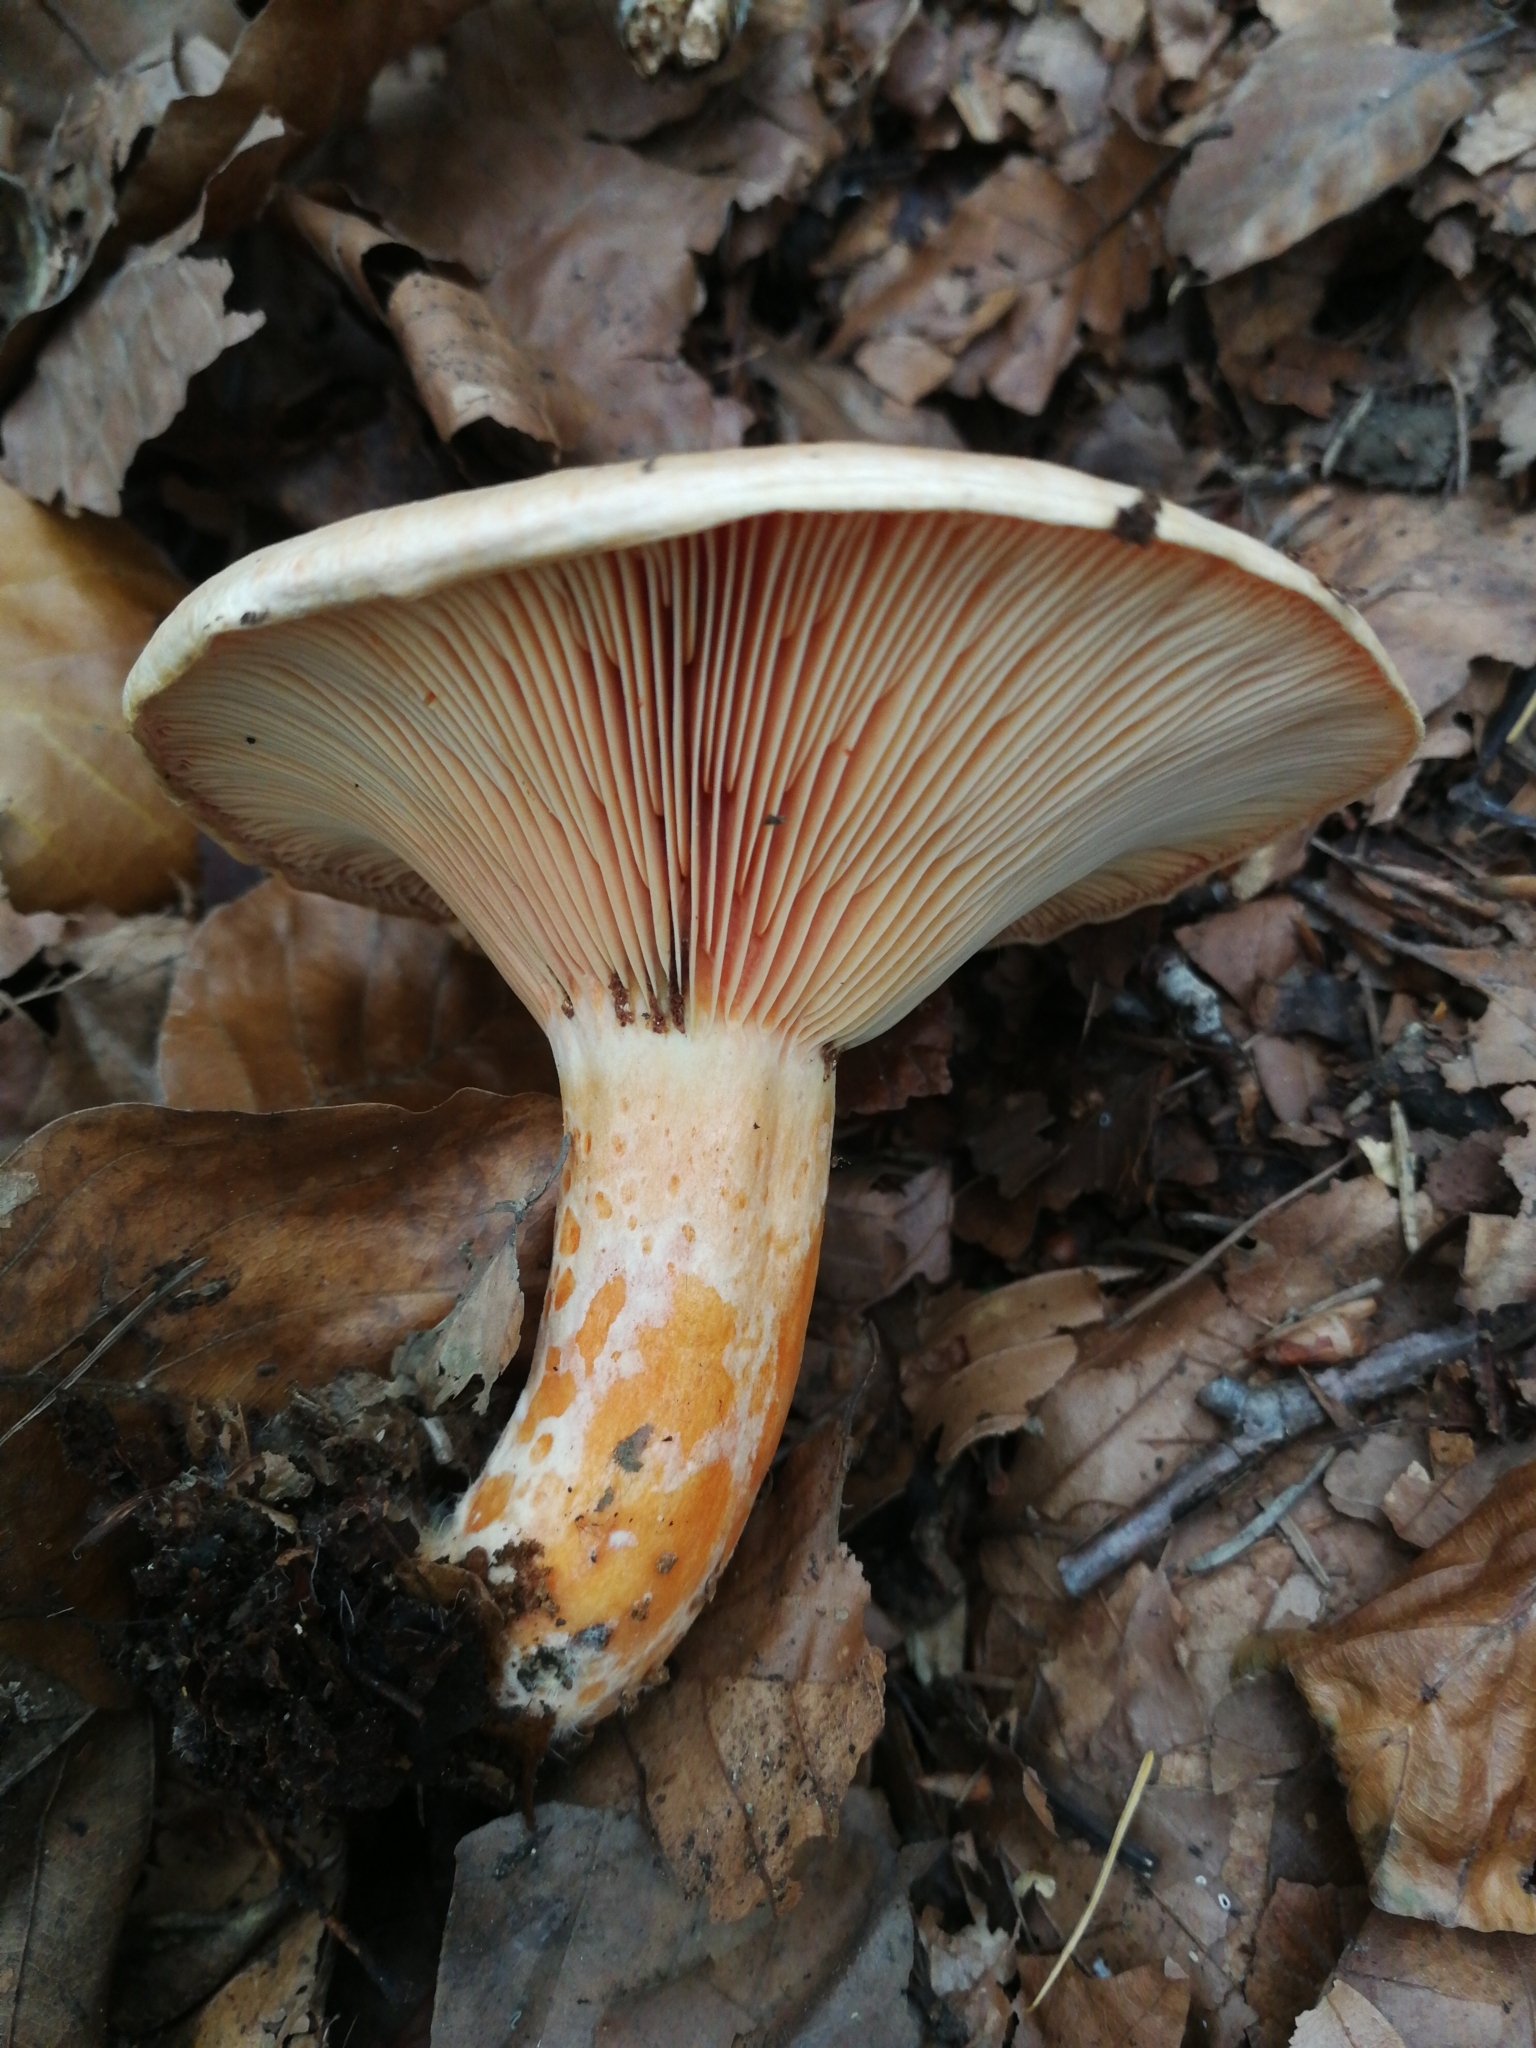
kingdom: Fungi
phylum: Basidiomycota
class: Agaricomycetes
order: Russulales
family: Russulaceae
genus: Lactarius
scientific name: Lactarius salmonicolor
